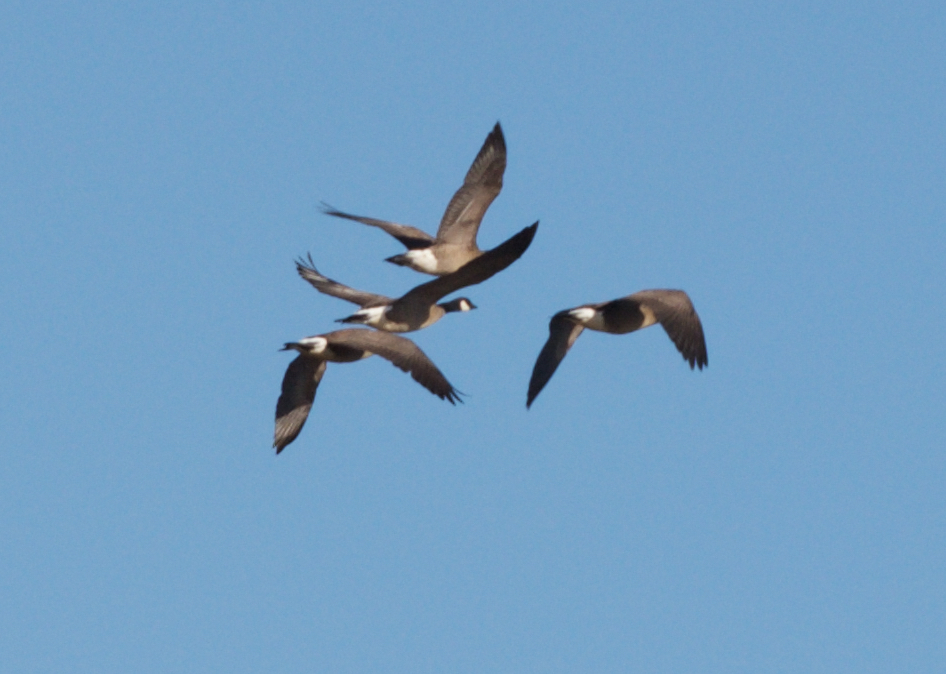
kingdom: Animalia
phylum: Chordata
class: Aves
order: Anseriformes
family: Anatidae
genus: Branta
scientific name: Branta canadensis
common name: Canada goose
